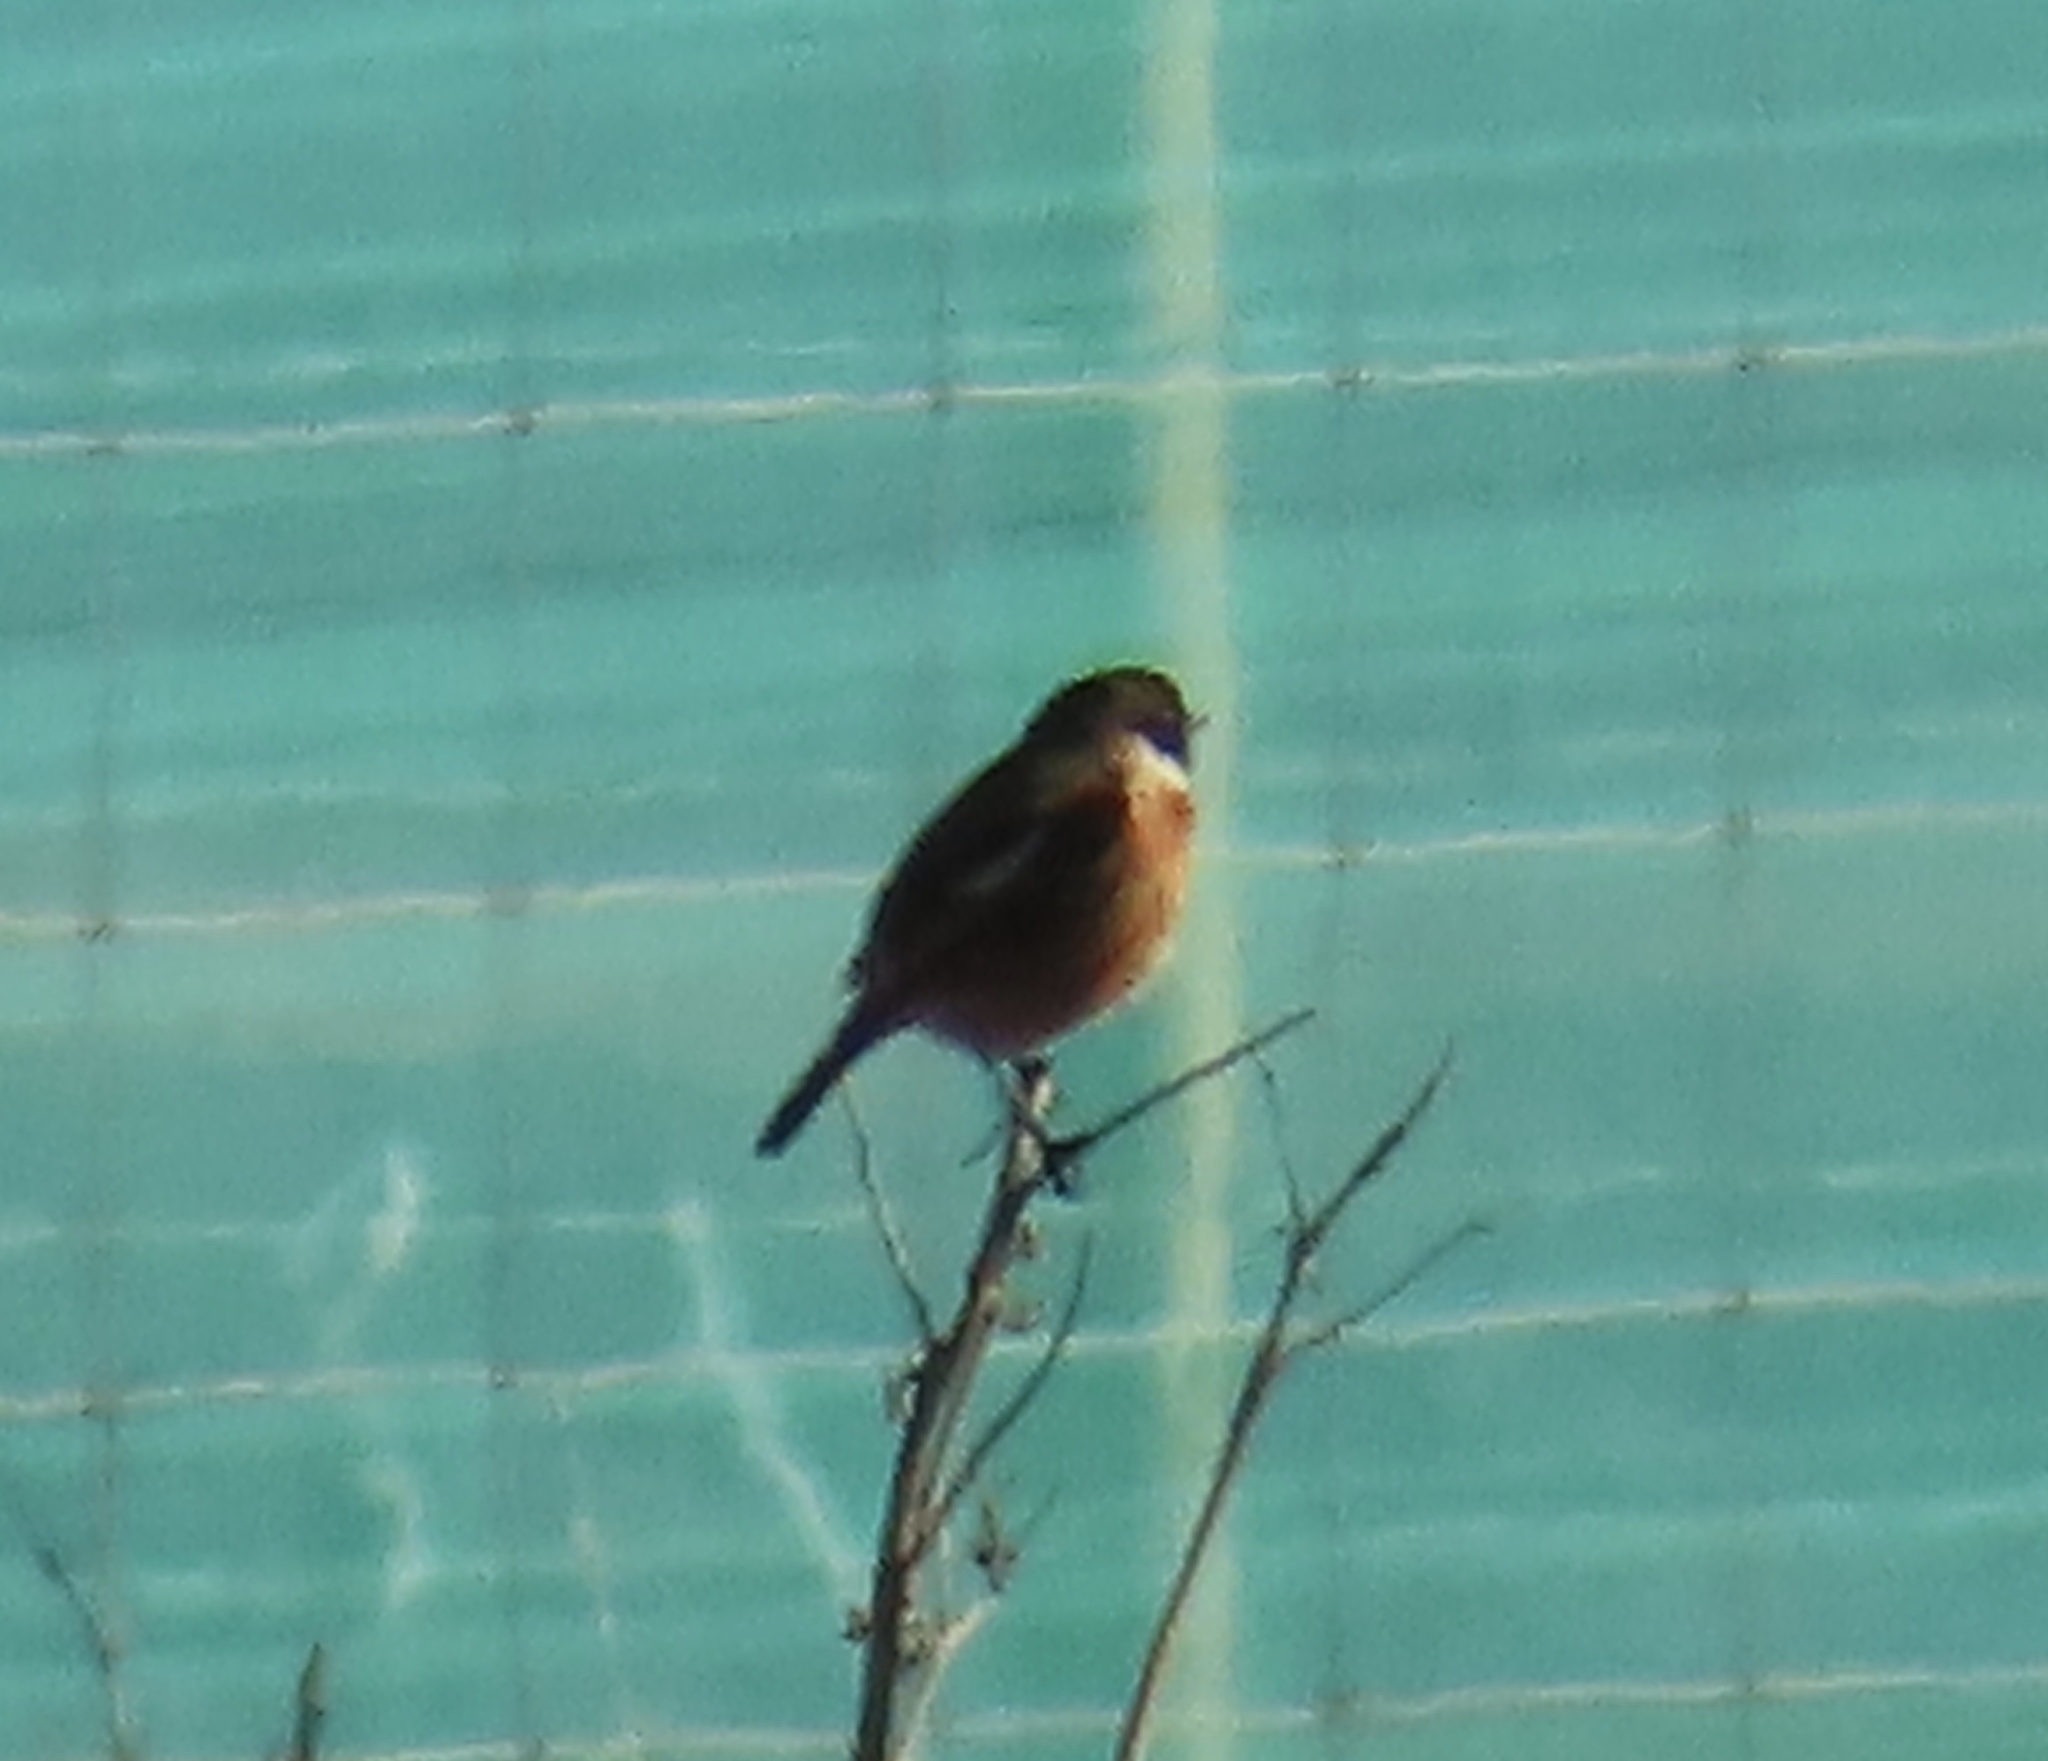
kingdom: Animalia
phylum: Chordata
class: Aves
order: Passeriformes
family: Muscicapidae
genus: Saxicola
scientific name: Saxicola rubicola
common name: European stonechat
